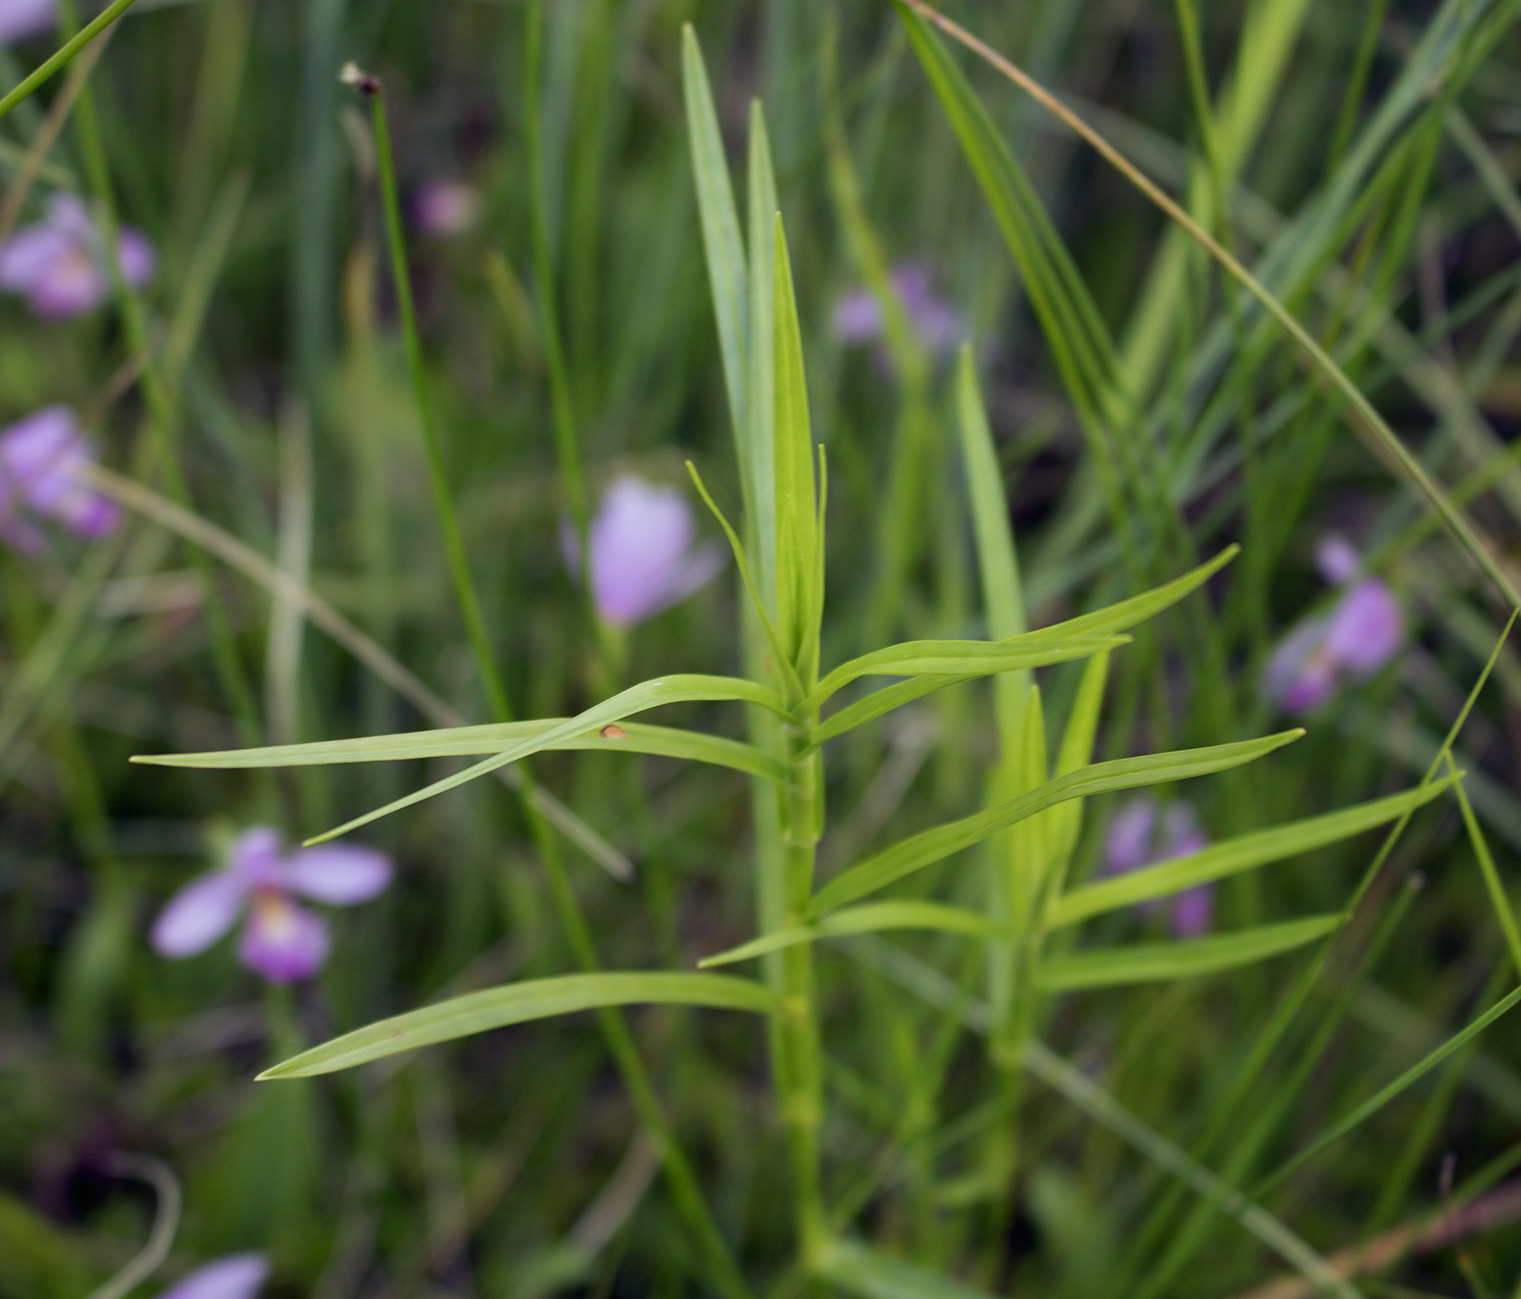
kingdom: Plantae
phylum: Tracheophyta
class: Liliopsida
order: Poales
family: Cyperaceae
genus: Dulichium
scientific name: Dulichium arundinaceum
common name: Three-way sedge
